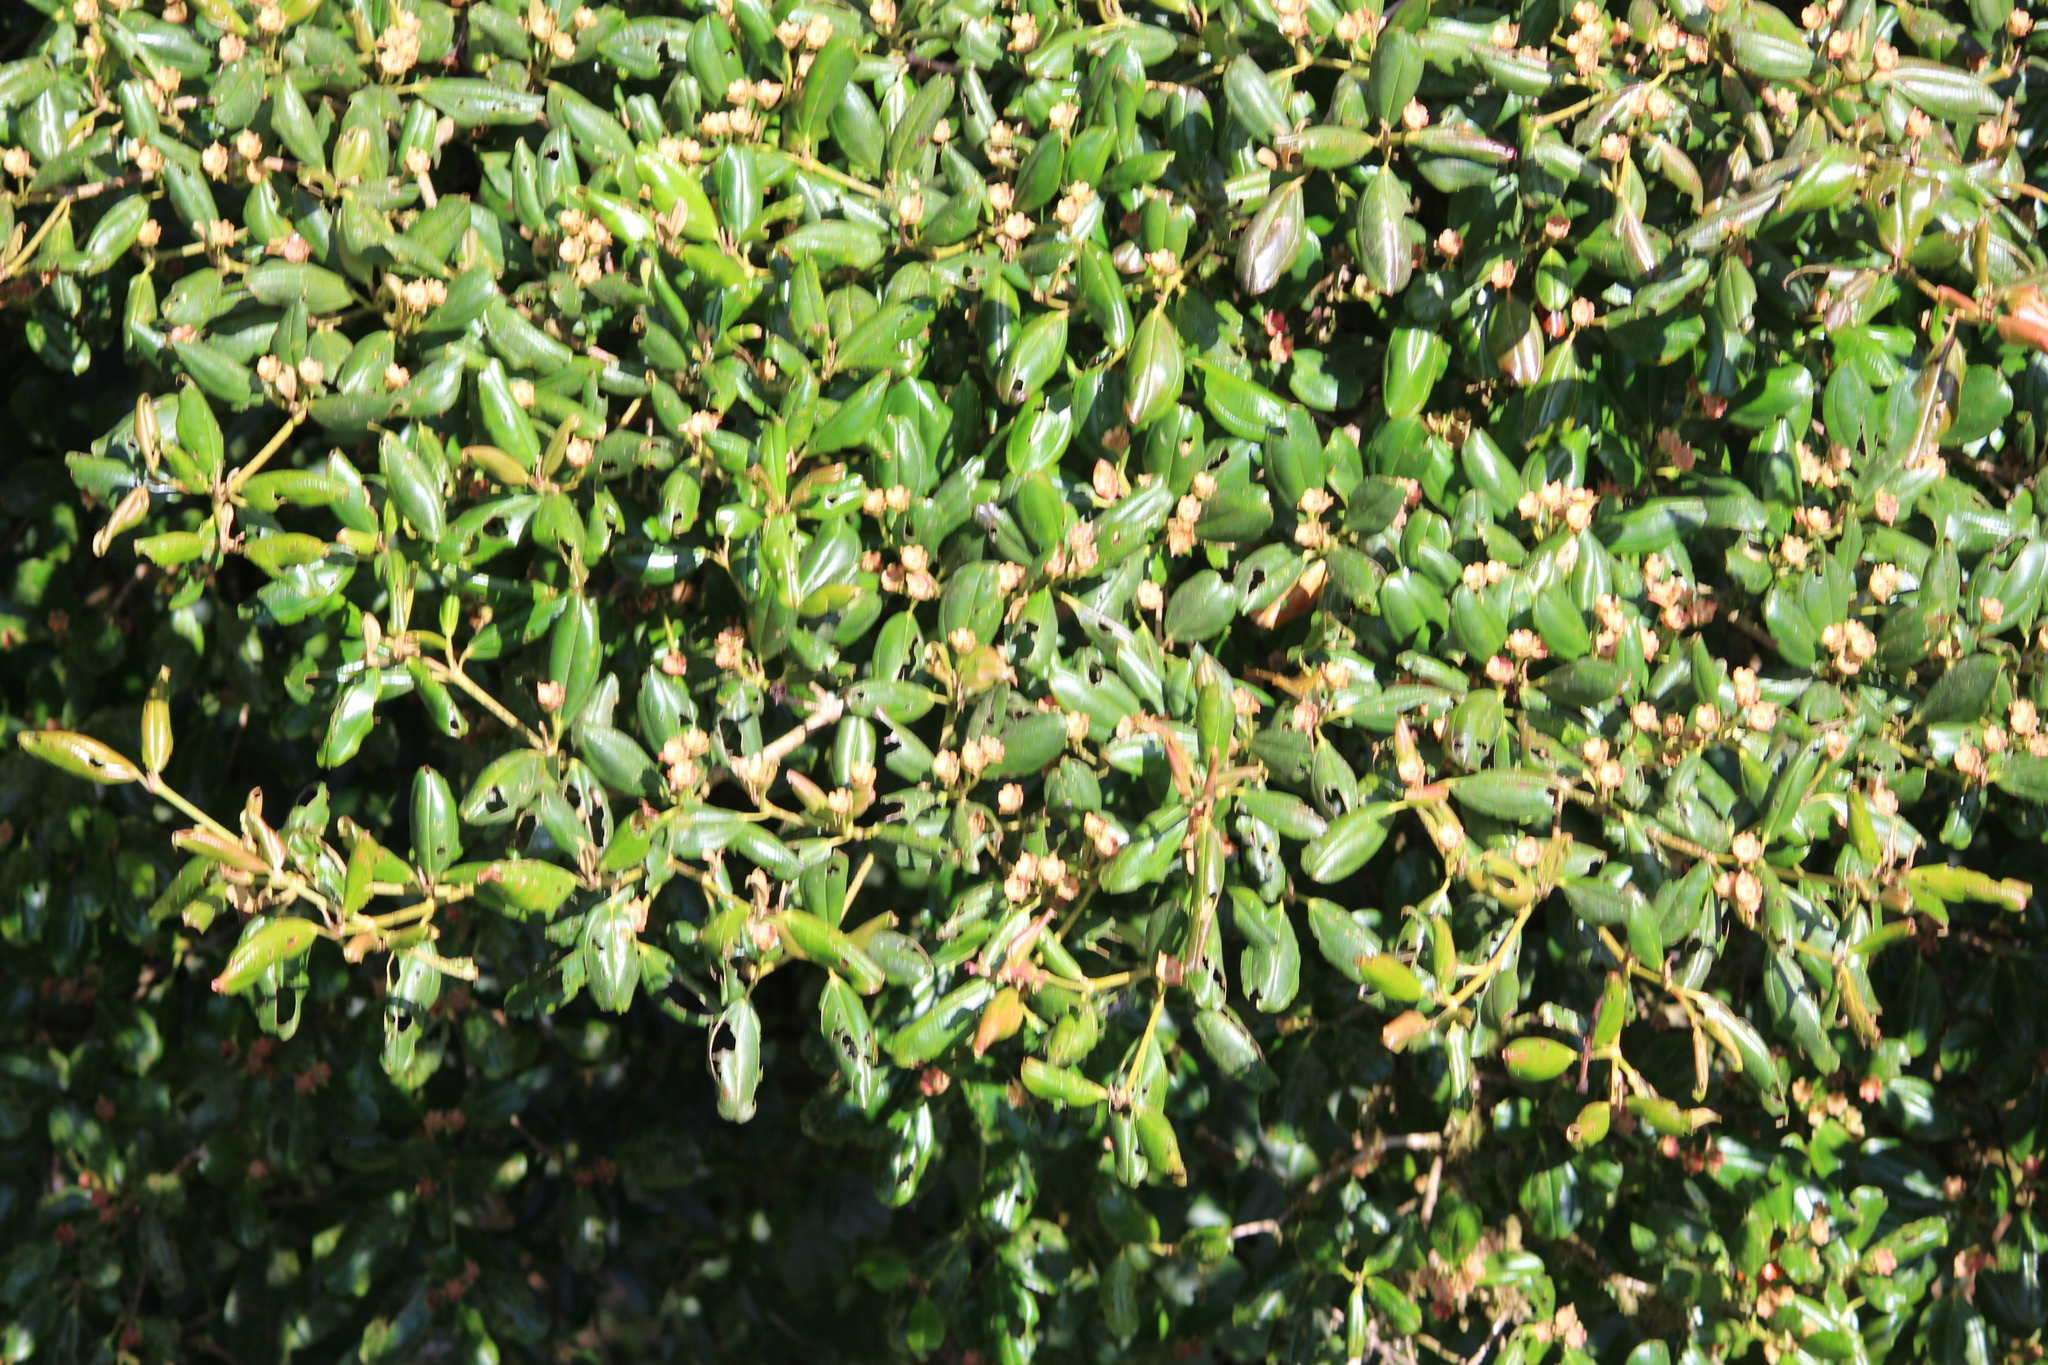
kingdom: Plantae
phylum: Tracheophyta
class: Magnoliopsida
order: Myrtales
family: Melastomataceae
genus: Blakea
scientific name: Blakea grandiflora
